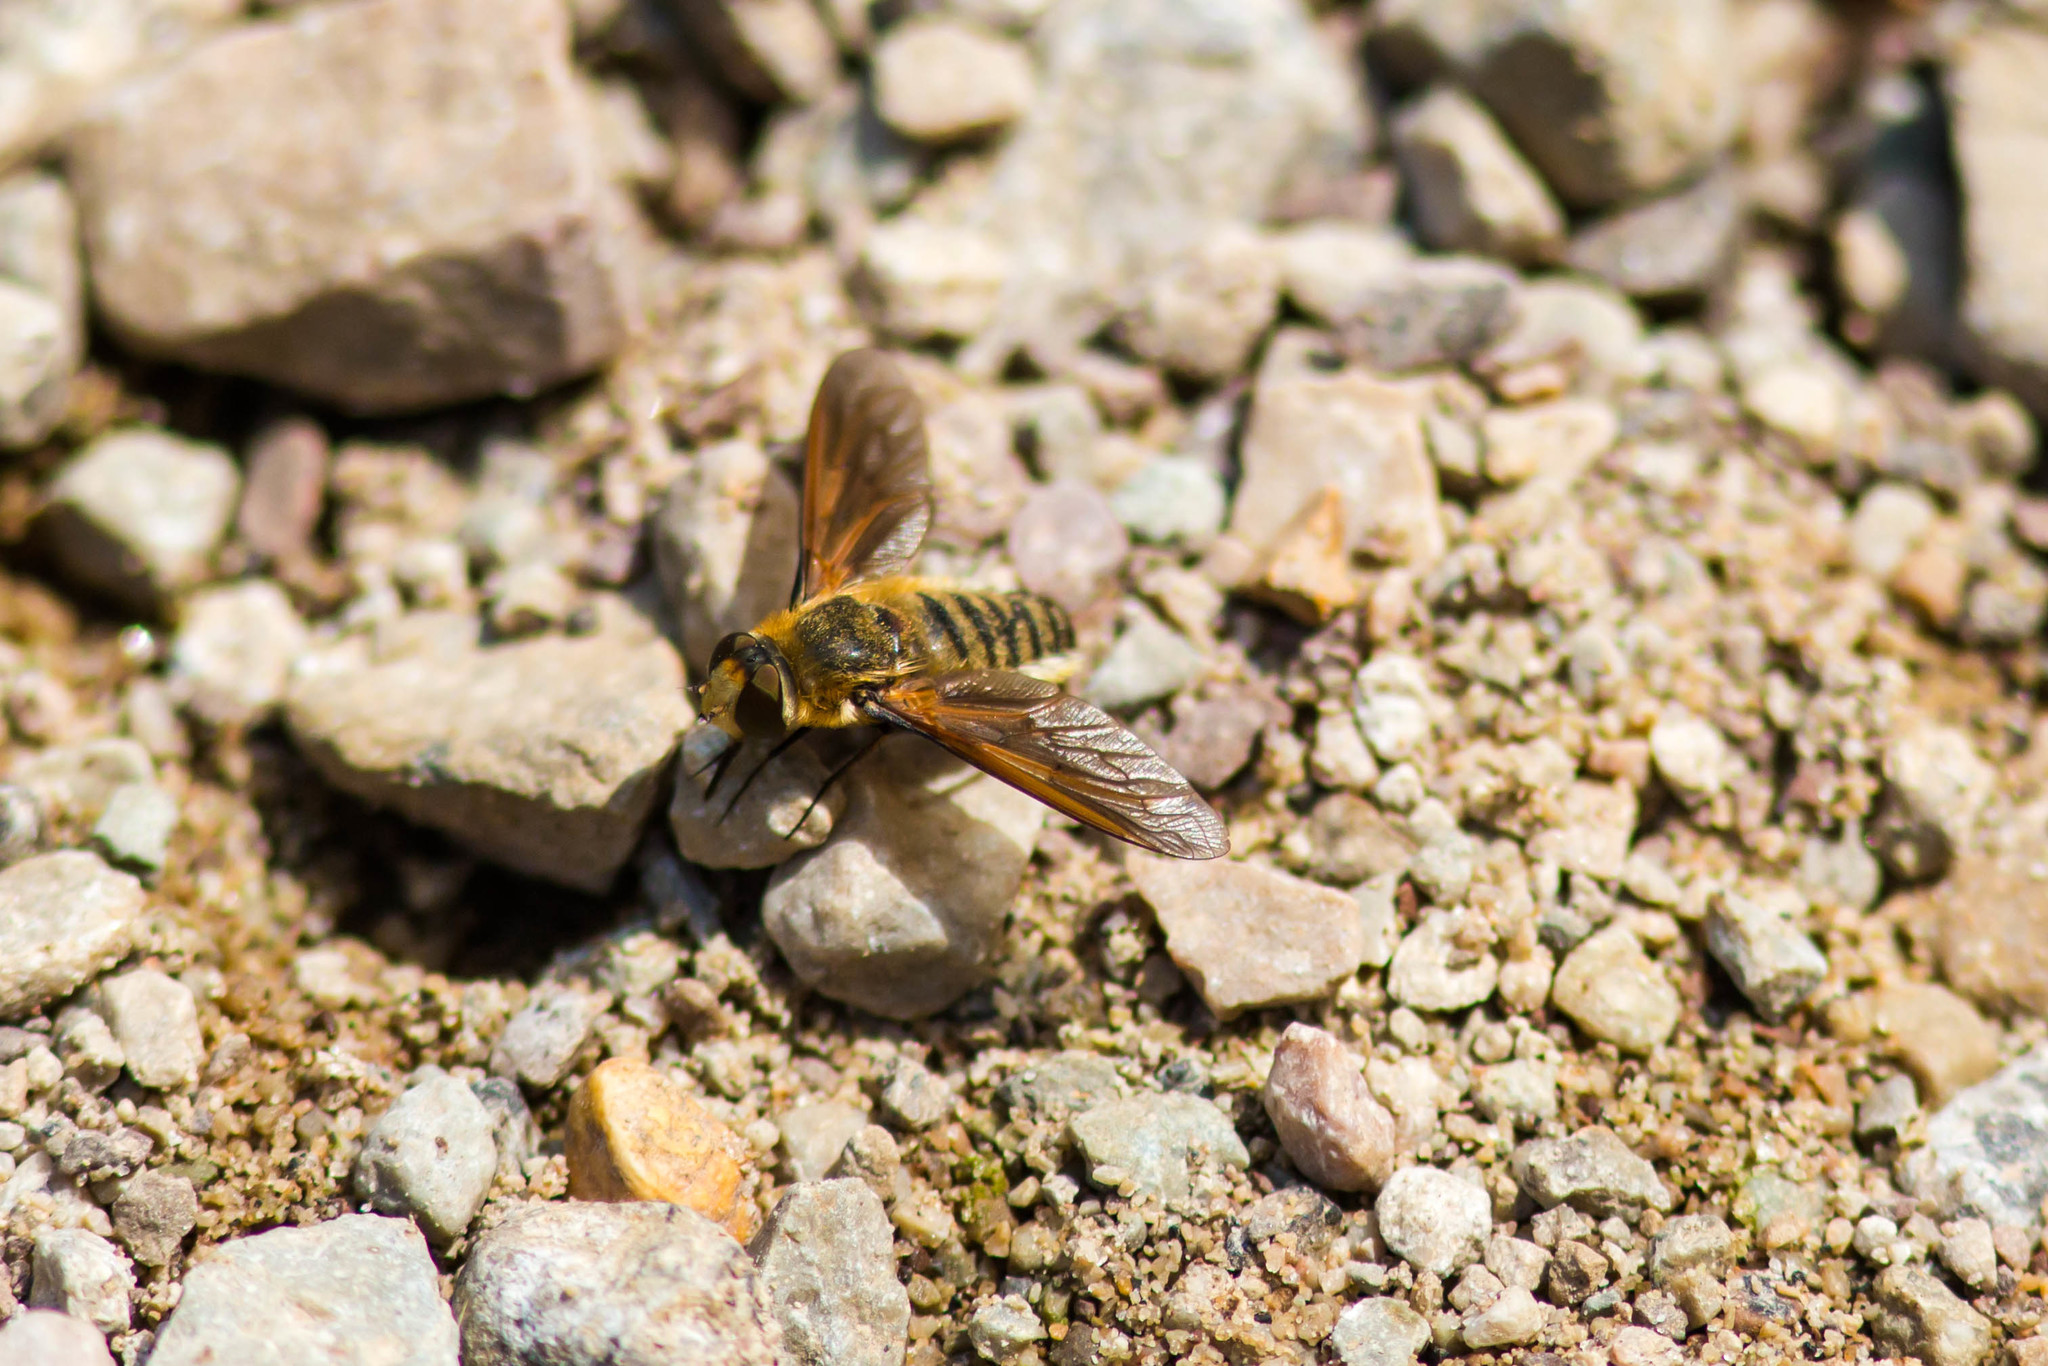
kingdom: Animalia
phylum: Arthropoda
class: Insecta
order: Diptera
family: Bombyliidae
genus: Poecilanthrax
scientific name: Poecilanthrax lucifer
